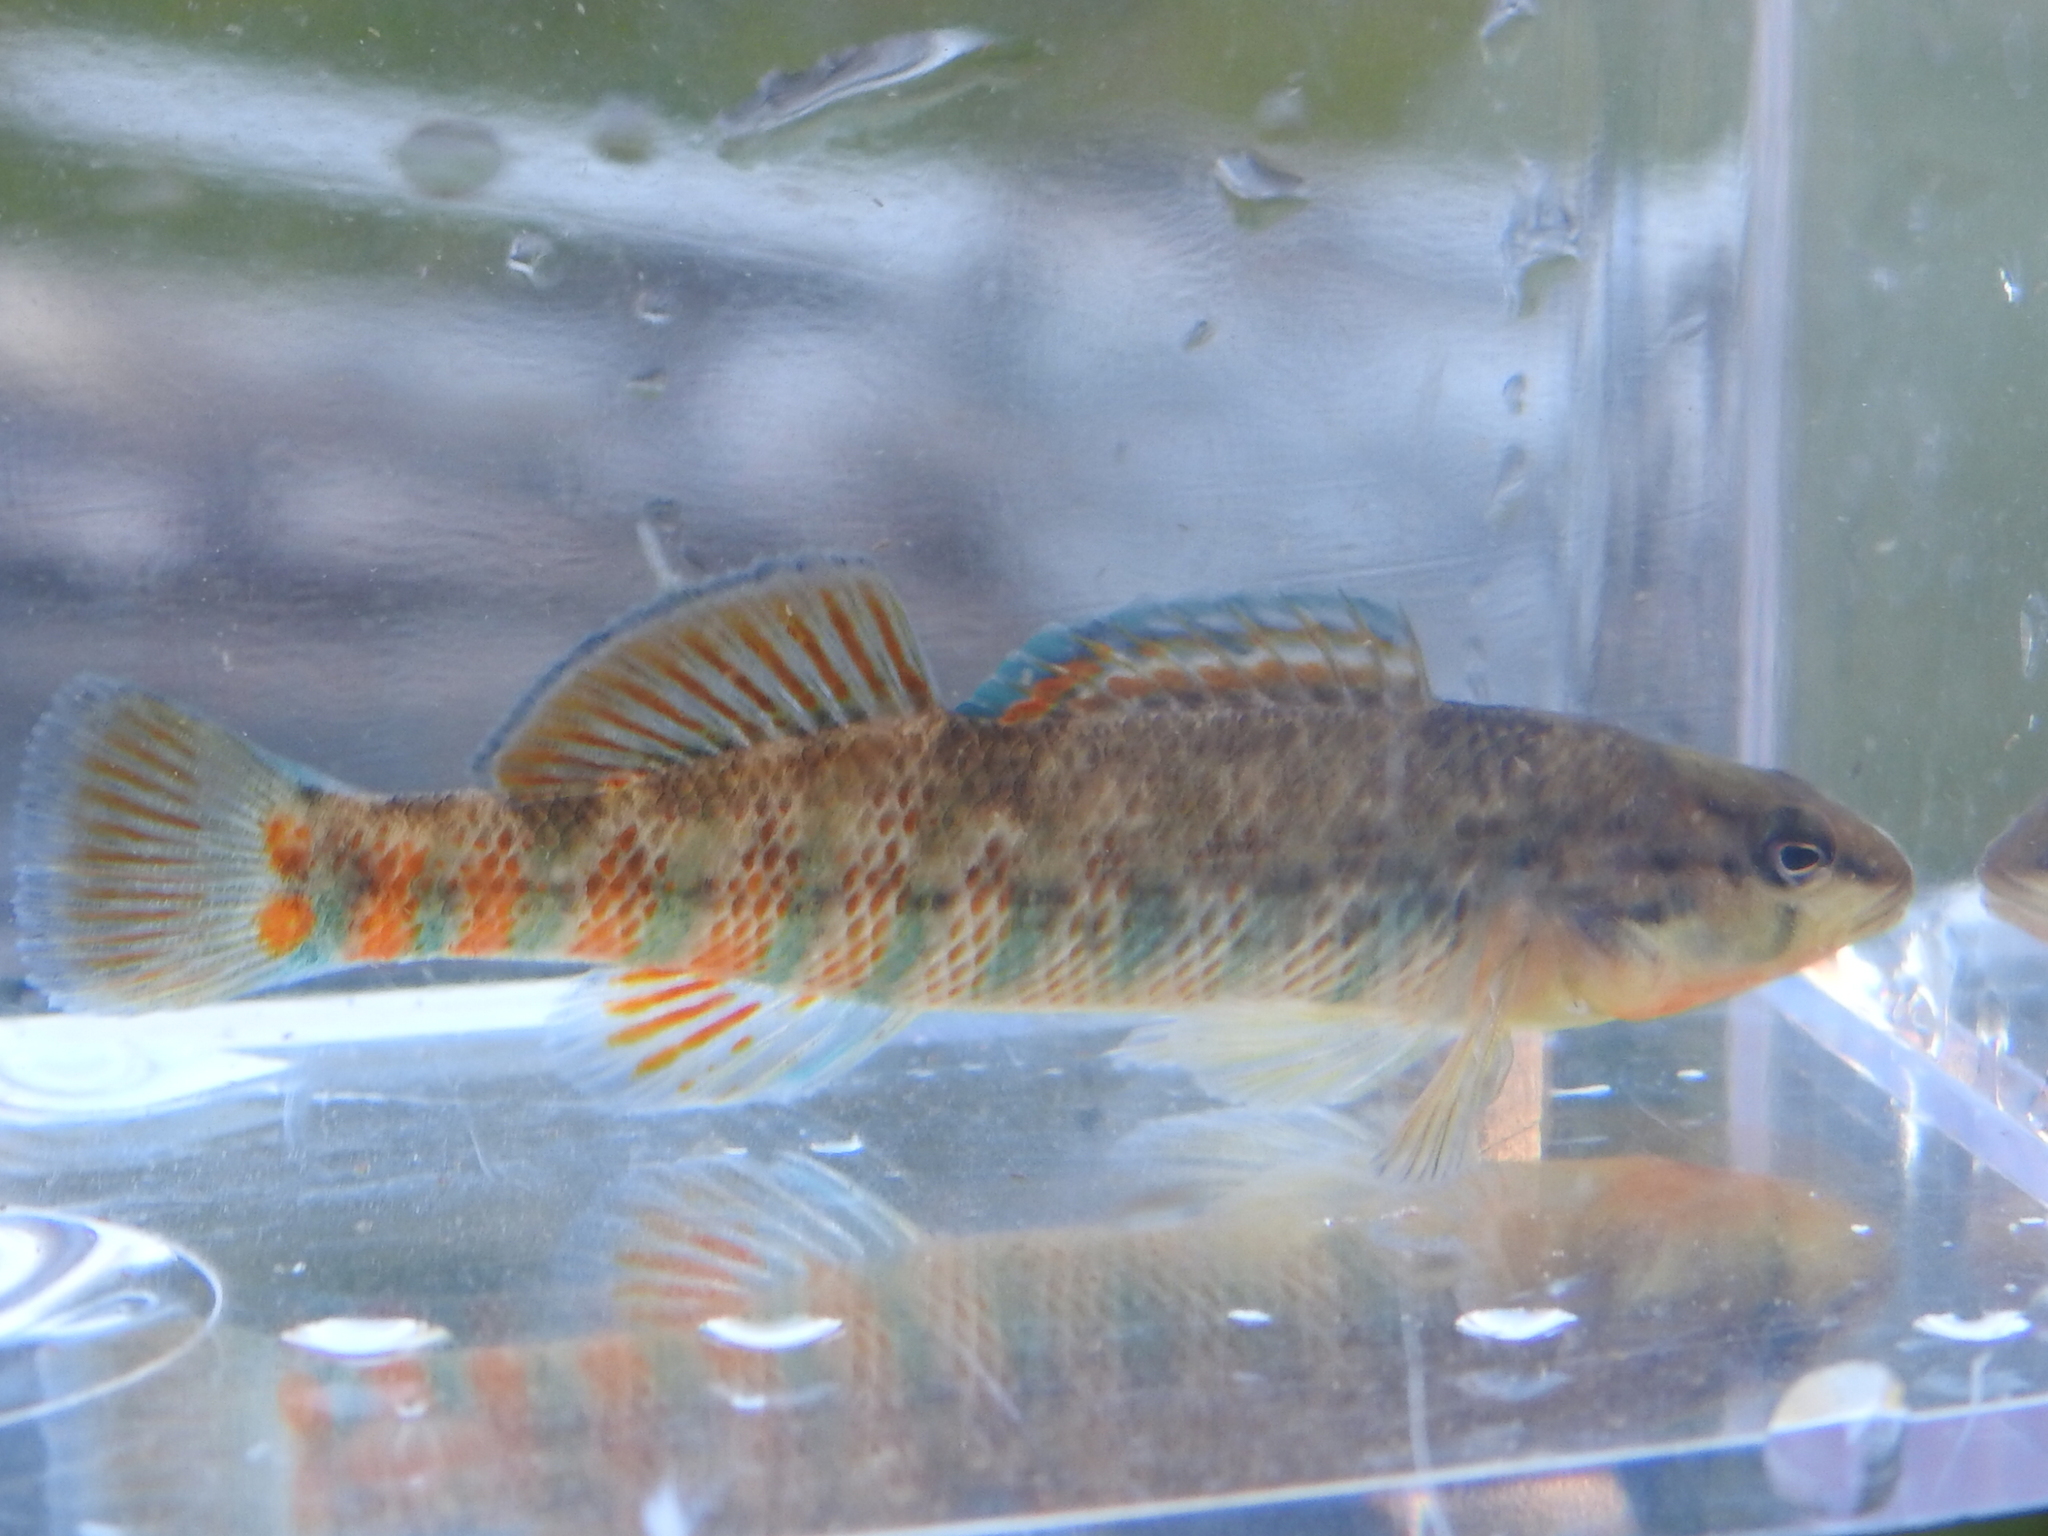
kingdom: Animalia
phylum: Chordata
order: Perciformes
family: Percidae
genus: Etheostoma
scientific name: Etheostoma caeruleum
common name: Rainbow darter
